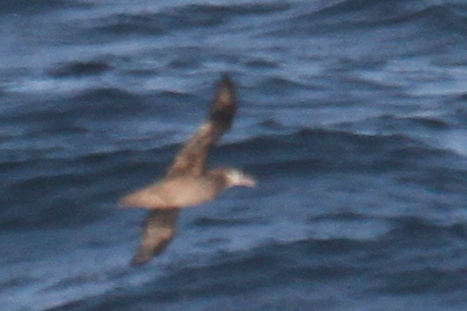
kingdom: Animalia
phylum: Chordata
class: Aves
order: Procellariiformes
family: Diomedeidae
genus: Phoebastria
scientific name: Phoebastria nigripes
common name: Black-footed albatross
